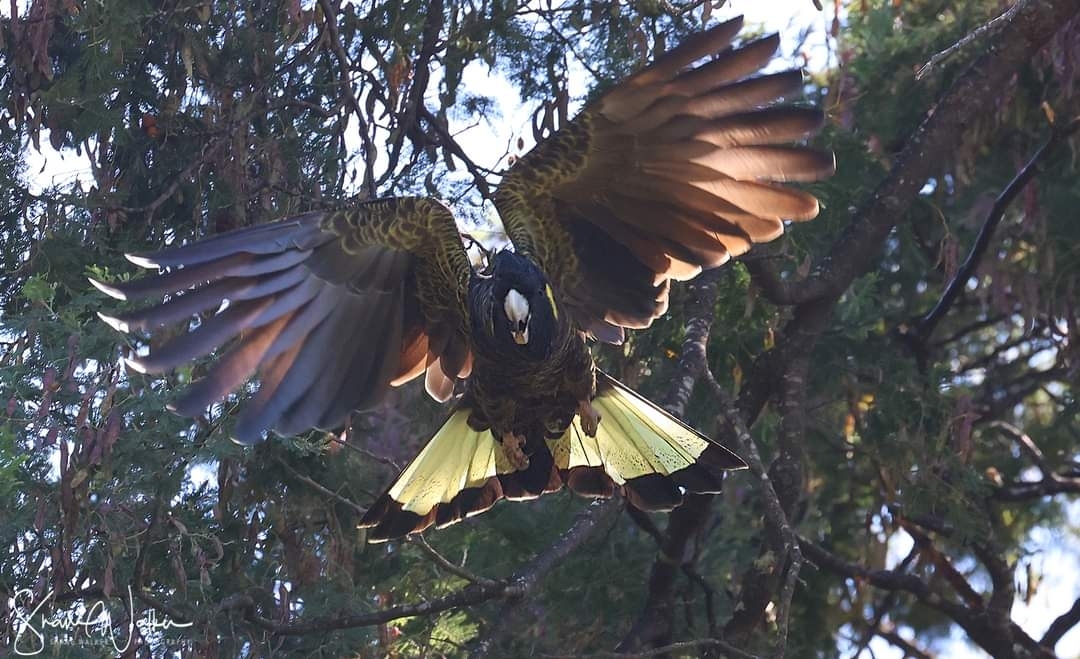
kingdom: Animalia
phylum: Chordata
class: Aves
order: Psittaciformes
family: Cacatuidae
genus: Zanda
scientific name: Zanda funerea
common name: Yellow-tailed black-cockatoo
